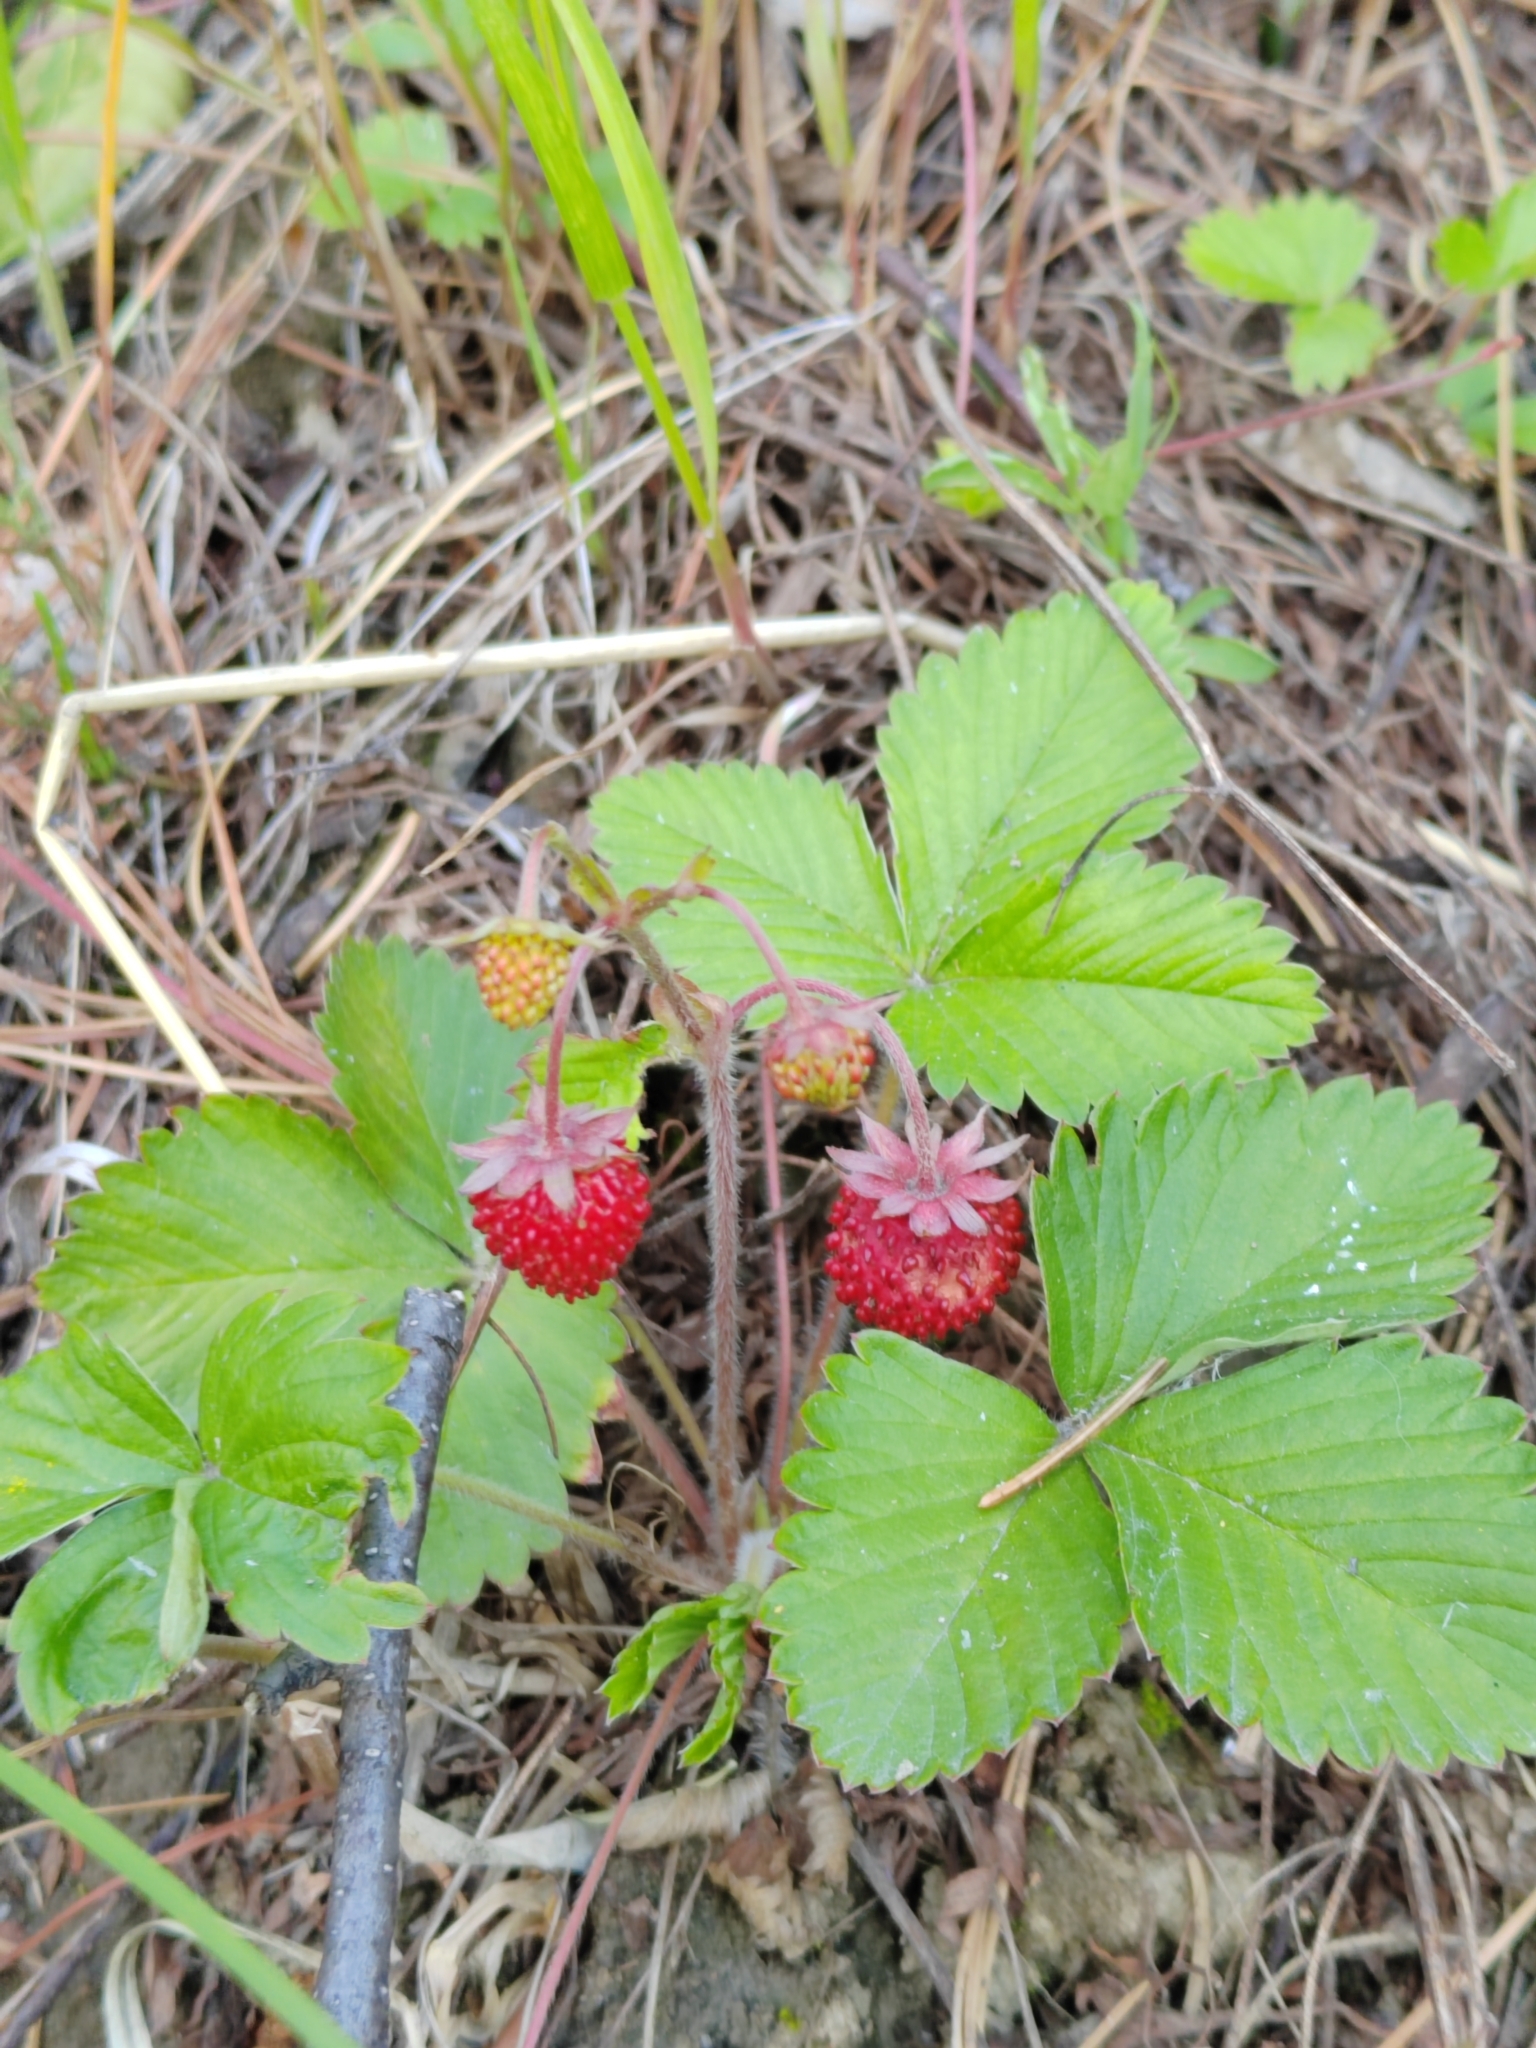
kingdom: Plantae
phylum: Tracheophyta
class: Magnoliopsida
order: Rosales
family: Rosaceae
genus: Fragaria
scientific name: Fragaria vesca
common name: Wild strawberry
